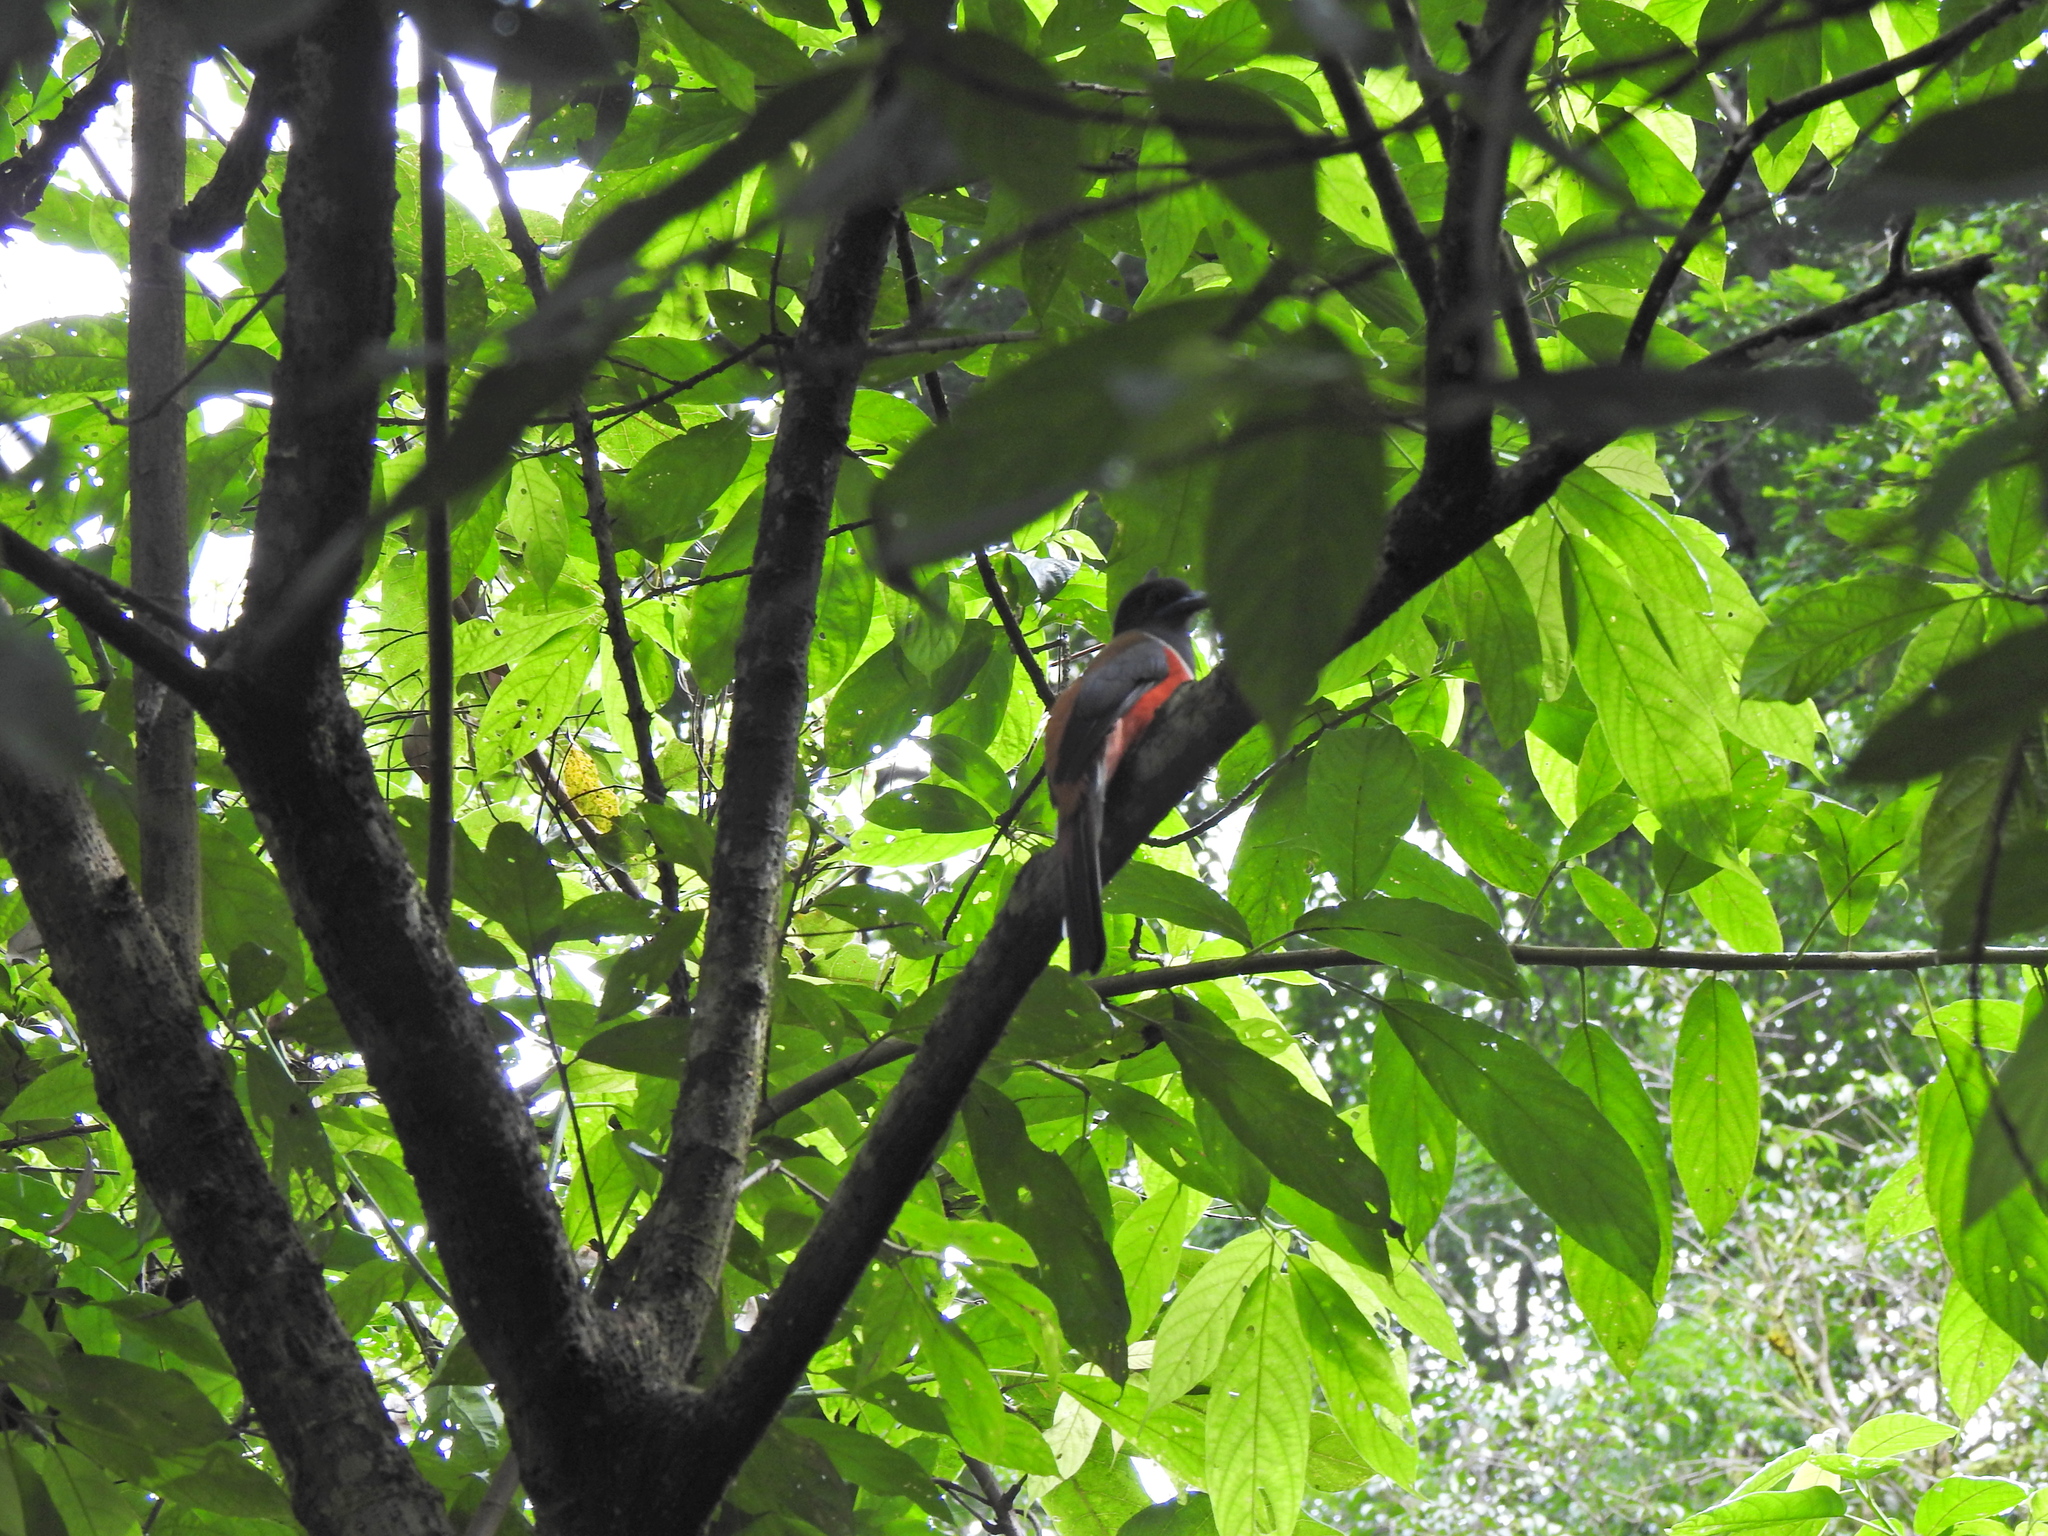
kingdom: Animalia
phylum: Chordata
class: Aves
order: Trogoniformes
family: Trogonidae
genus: Harpactes
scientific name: Harpactes fasciatus
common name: Malabar trogon
